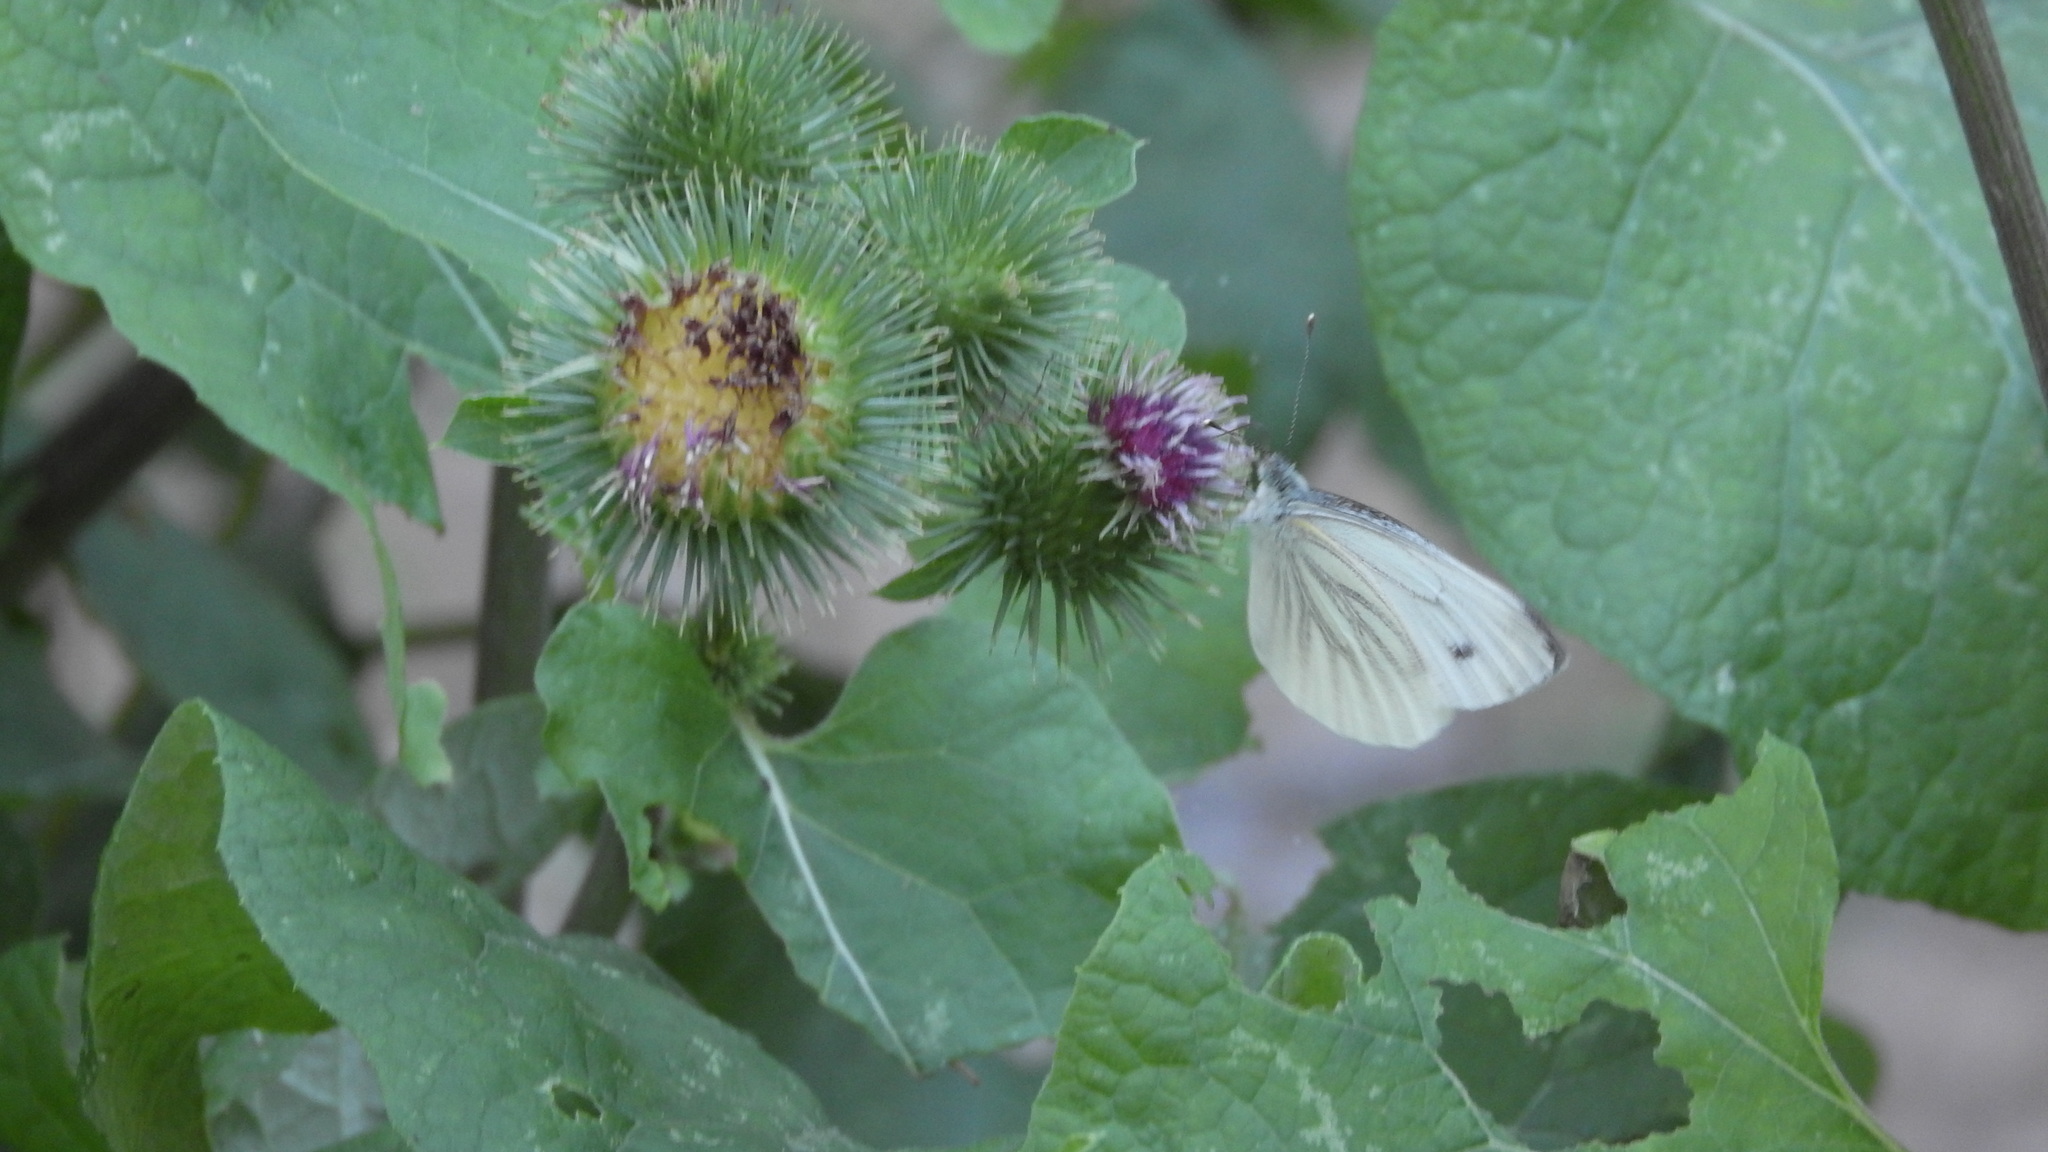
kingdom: Animalia
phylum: Arthropoda
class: Insecta
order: Lepidoptera
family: Pieridae
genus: Pieris
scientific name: Pieris napi
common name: Green-veined white
